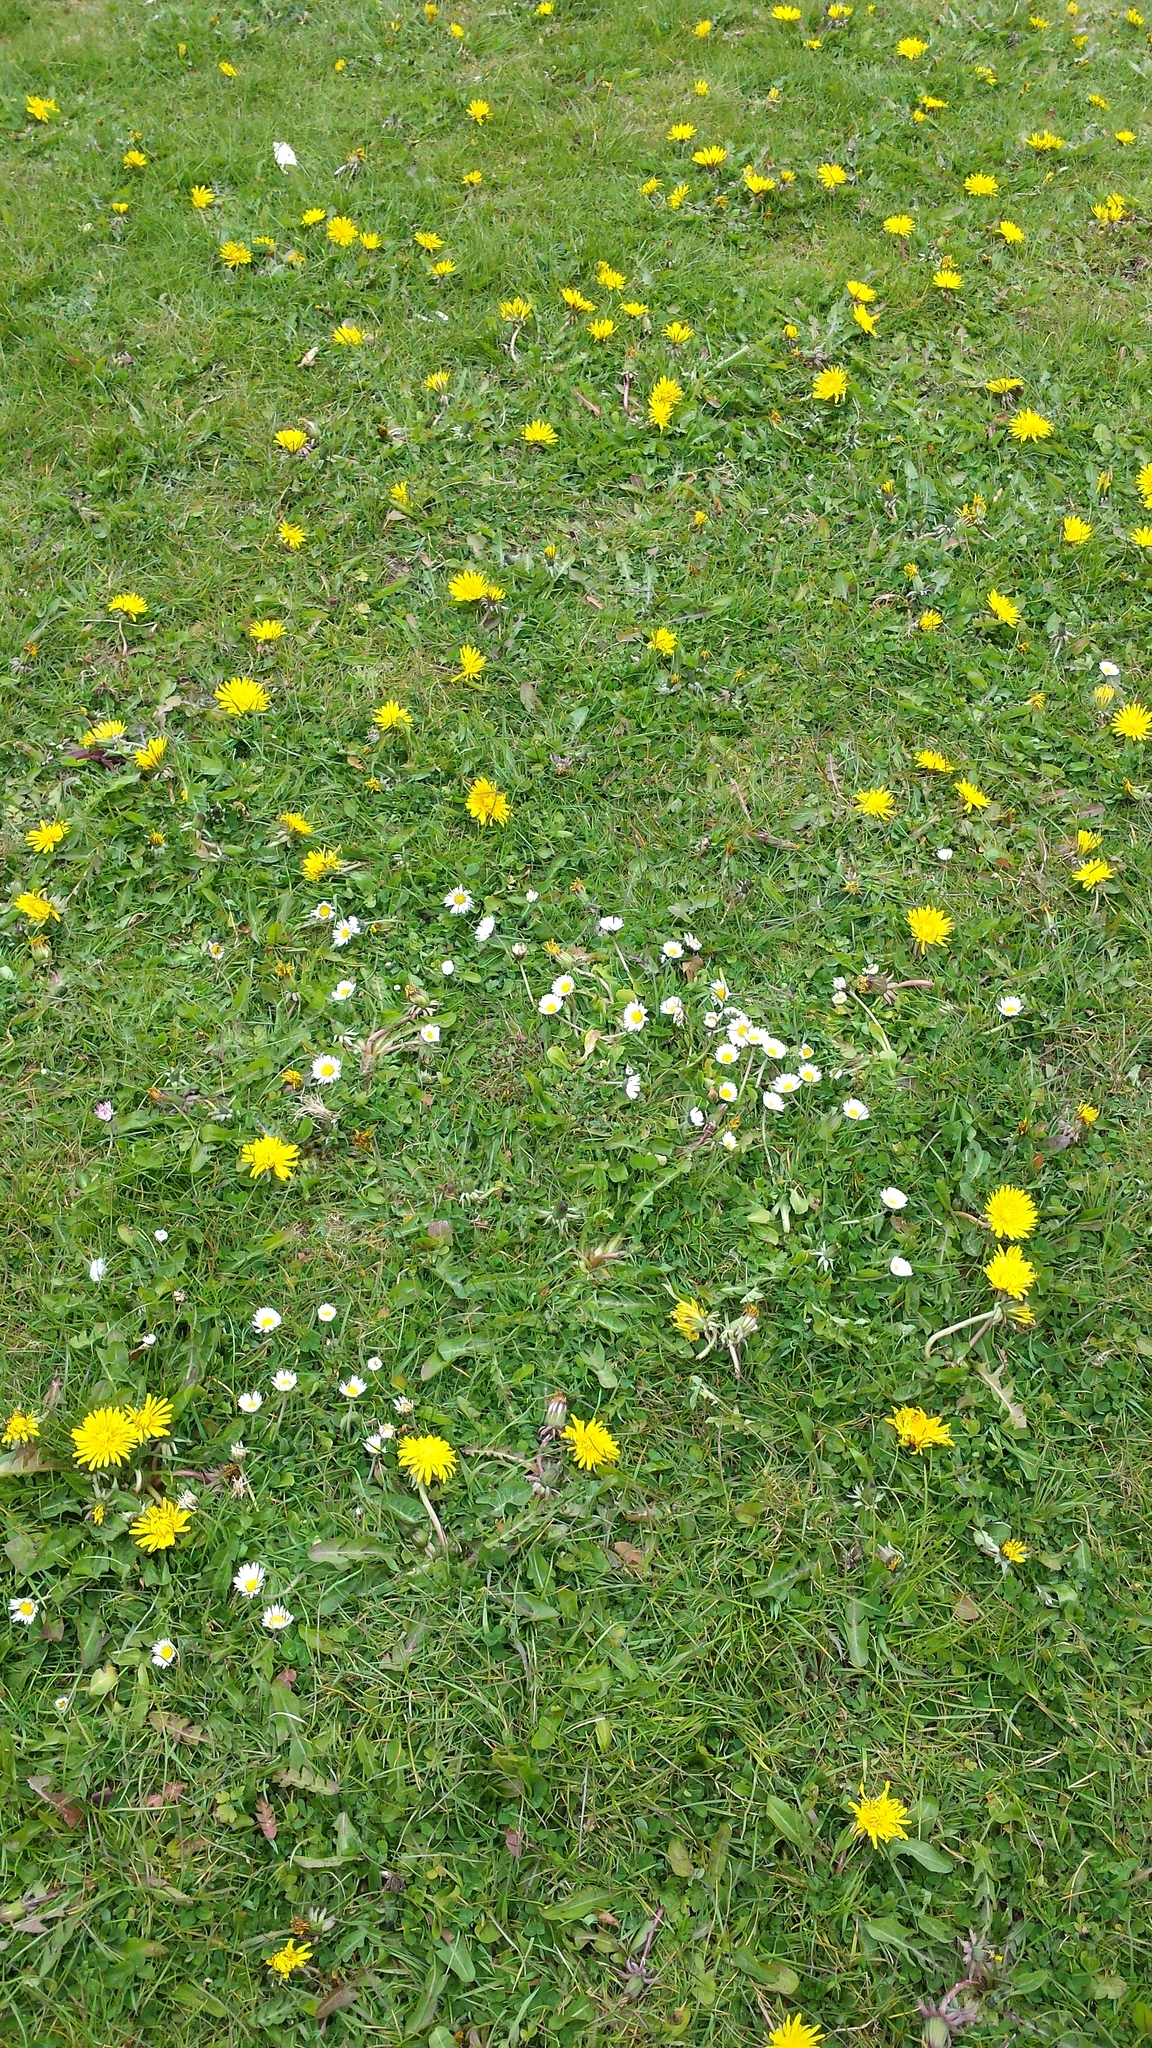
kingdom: Plantae
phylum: Tracheophyta
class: Magnoliopsida
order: Asterales
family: Asteraceae
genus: Bellis
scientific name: Bellis perennis
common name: Lawndaisy
